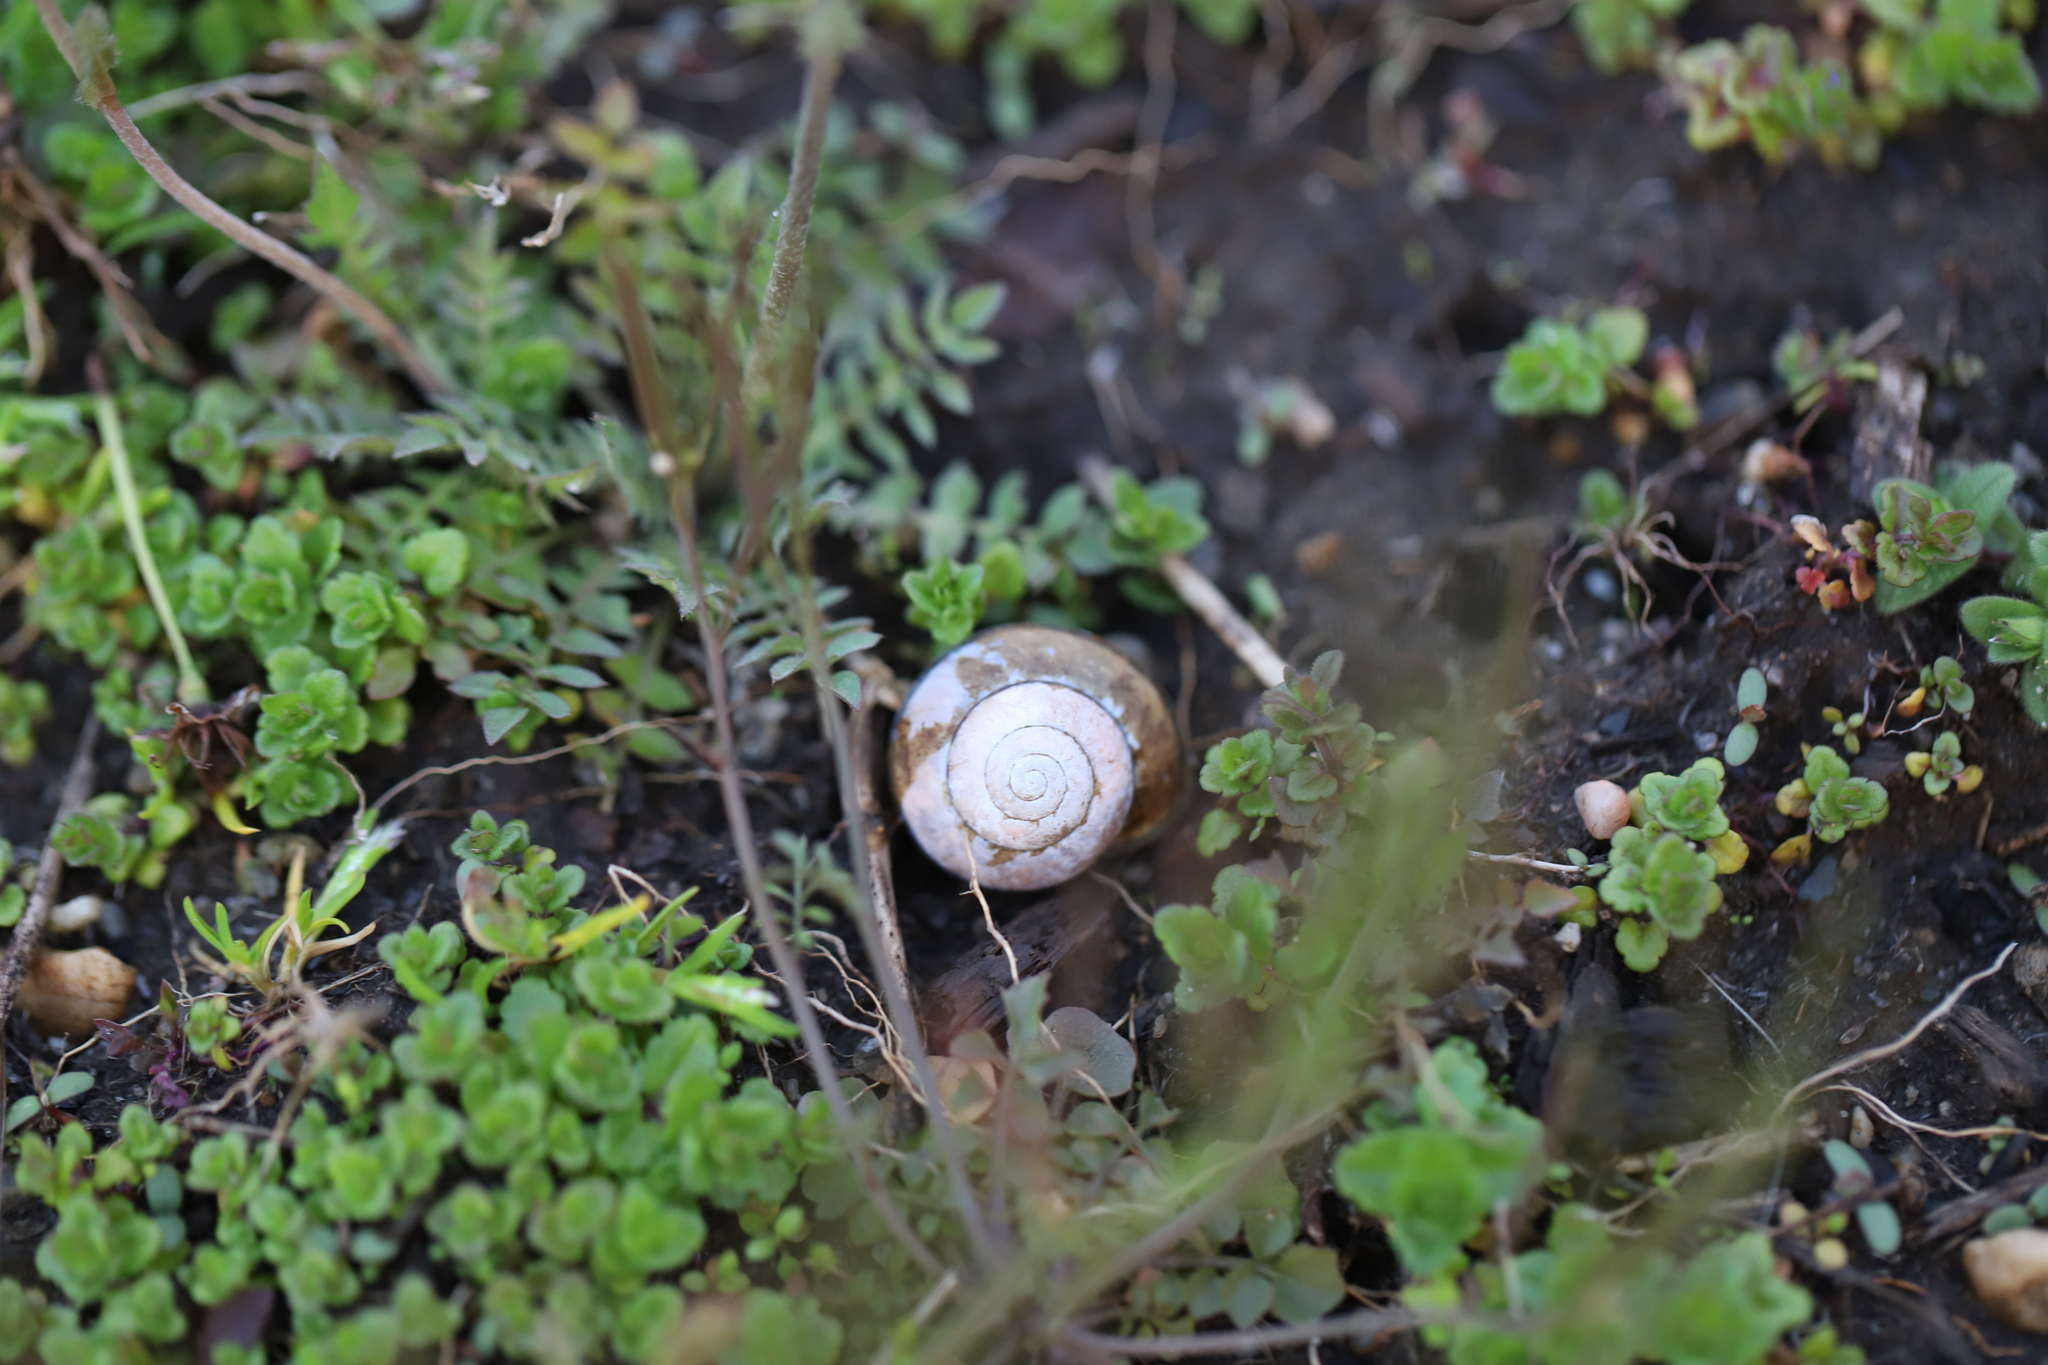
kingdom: Animalia
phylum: Mollusca
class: Gastropoda
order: Stylommatophora
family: Helicidae
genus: Cepaea
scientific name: Cepaea nemoralis
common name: Grovesnail
